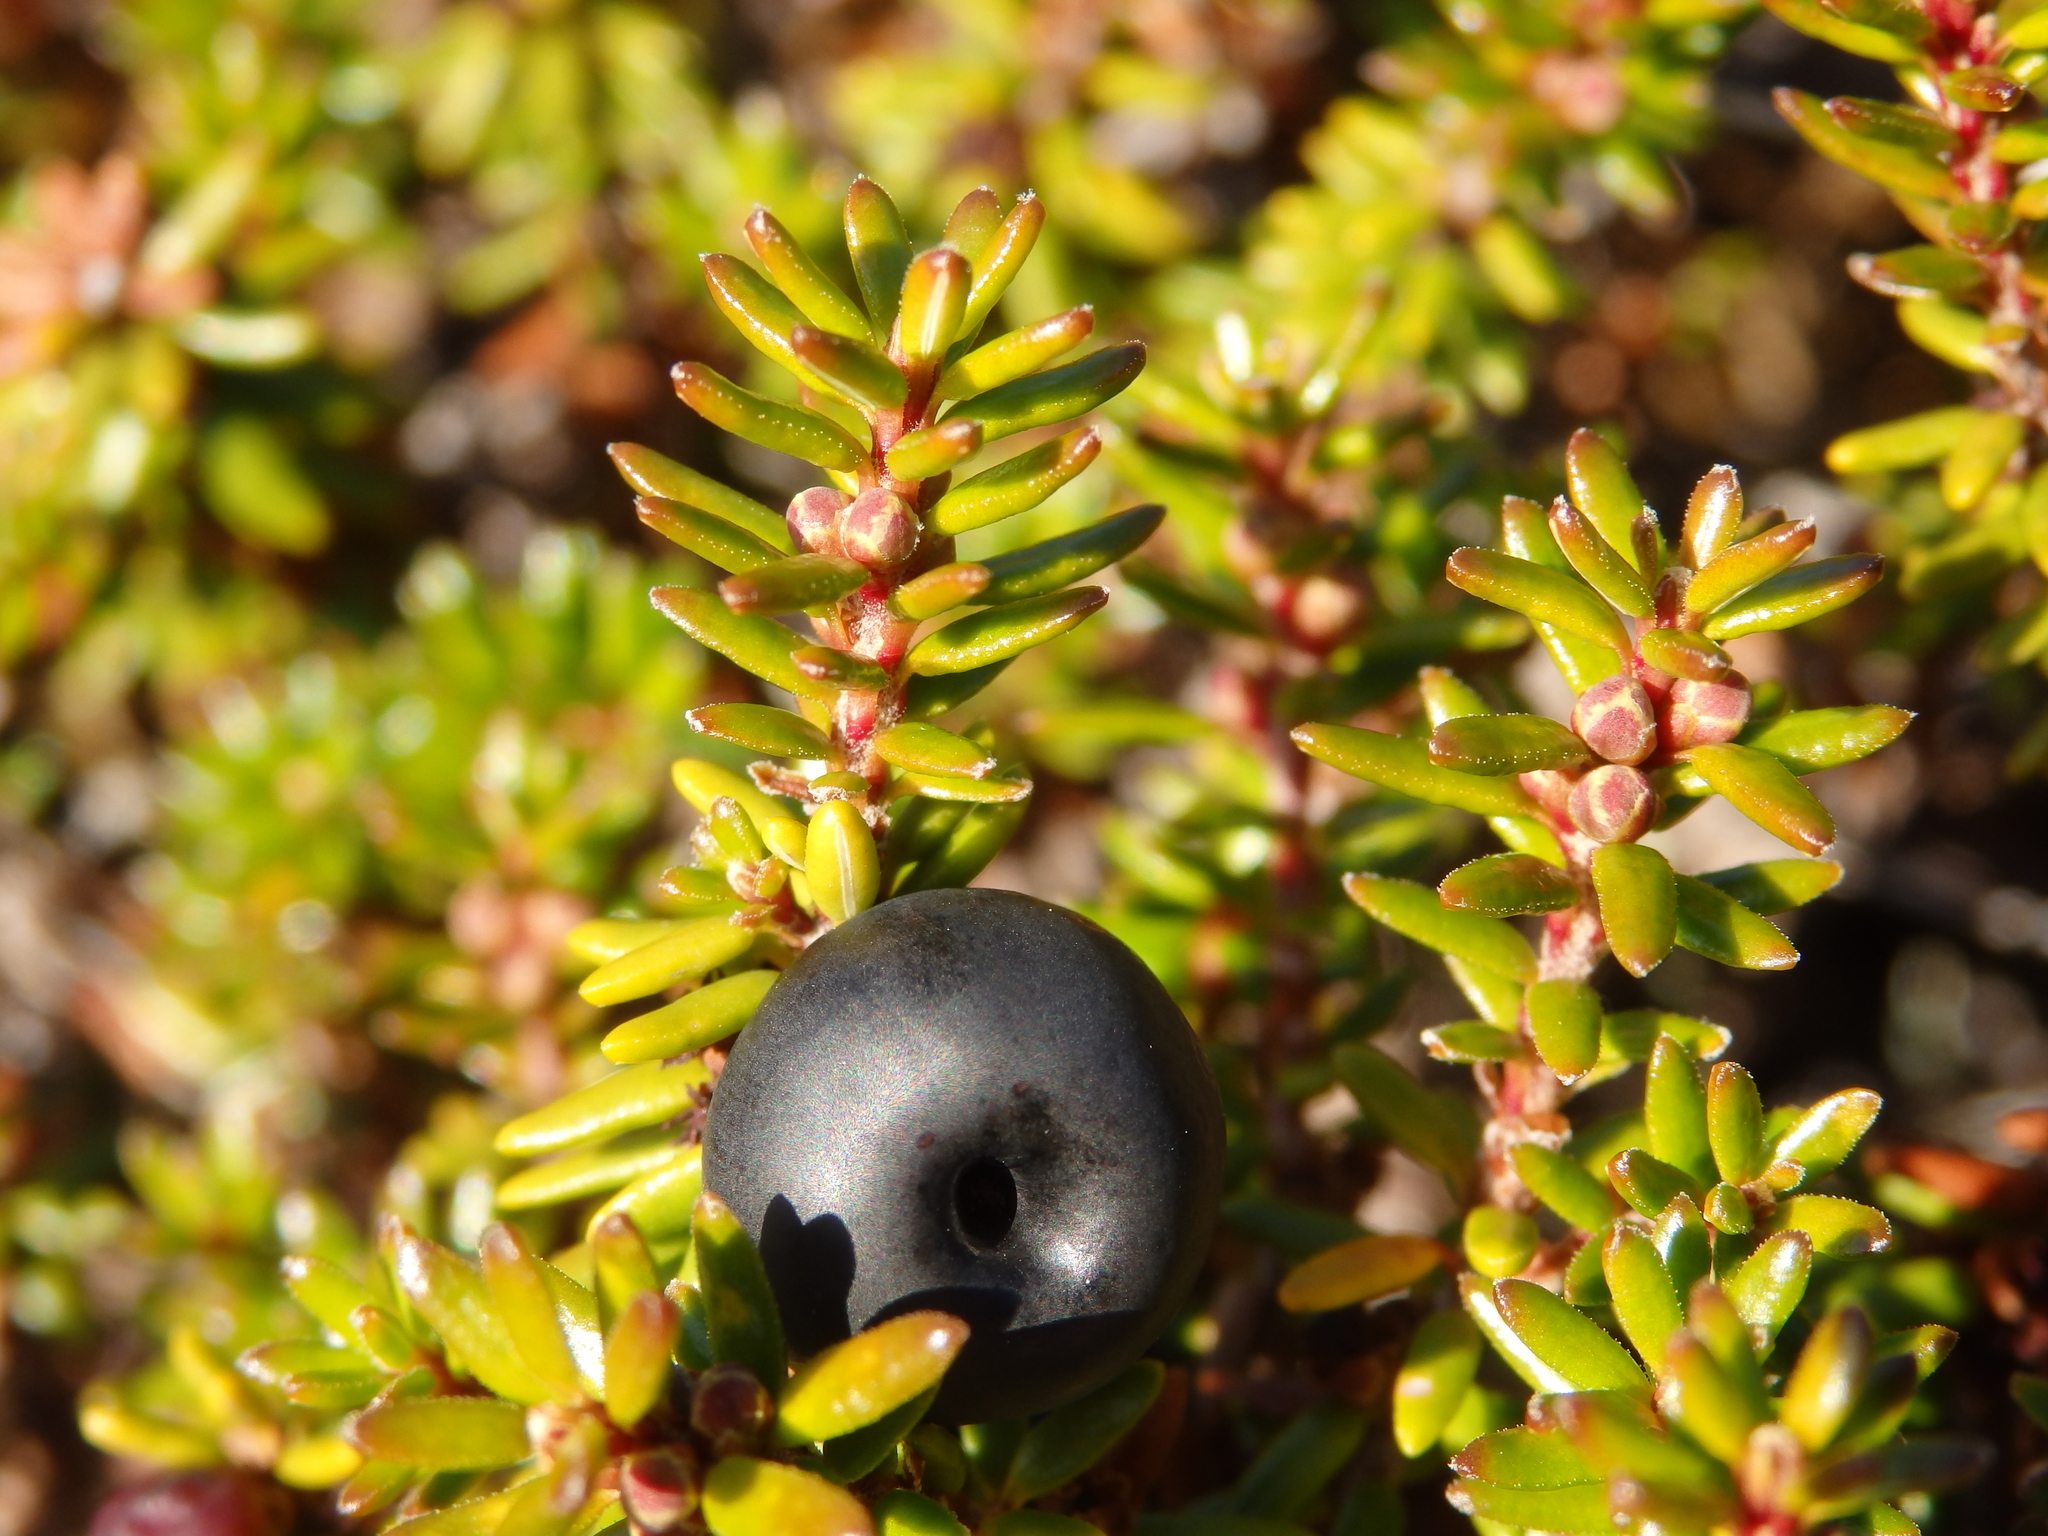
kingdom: Plantae
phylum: Tracheophyta
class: Magnoliopsida
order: Ericales
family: Ericaceae
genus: Empetrum
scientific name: Empetrum nigrum
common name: Black crowberry
